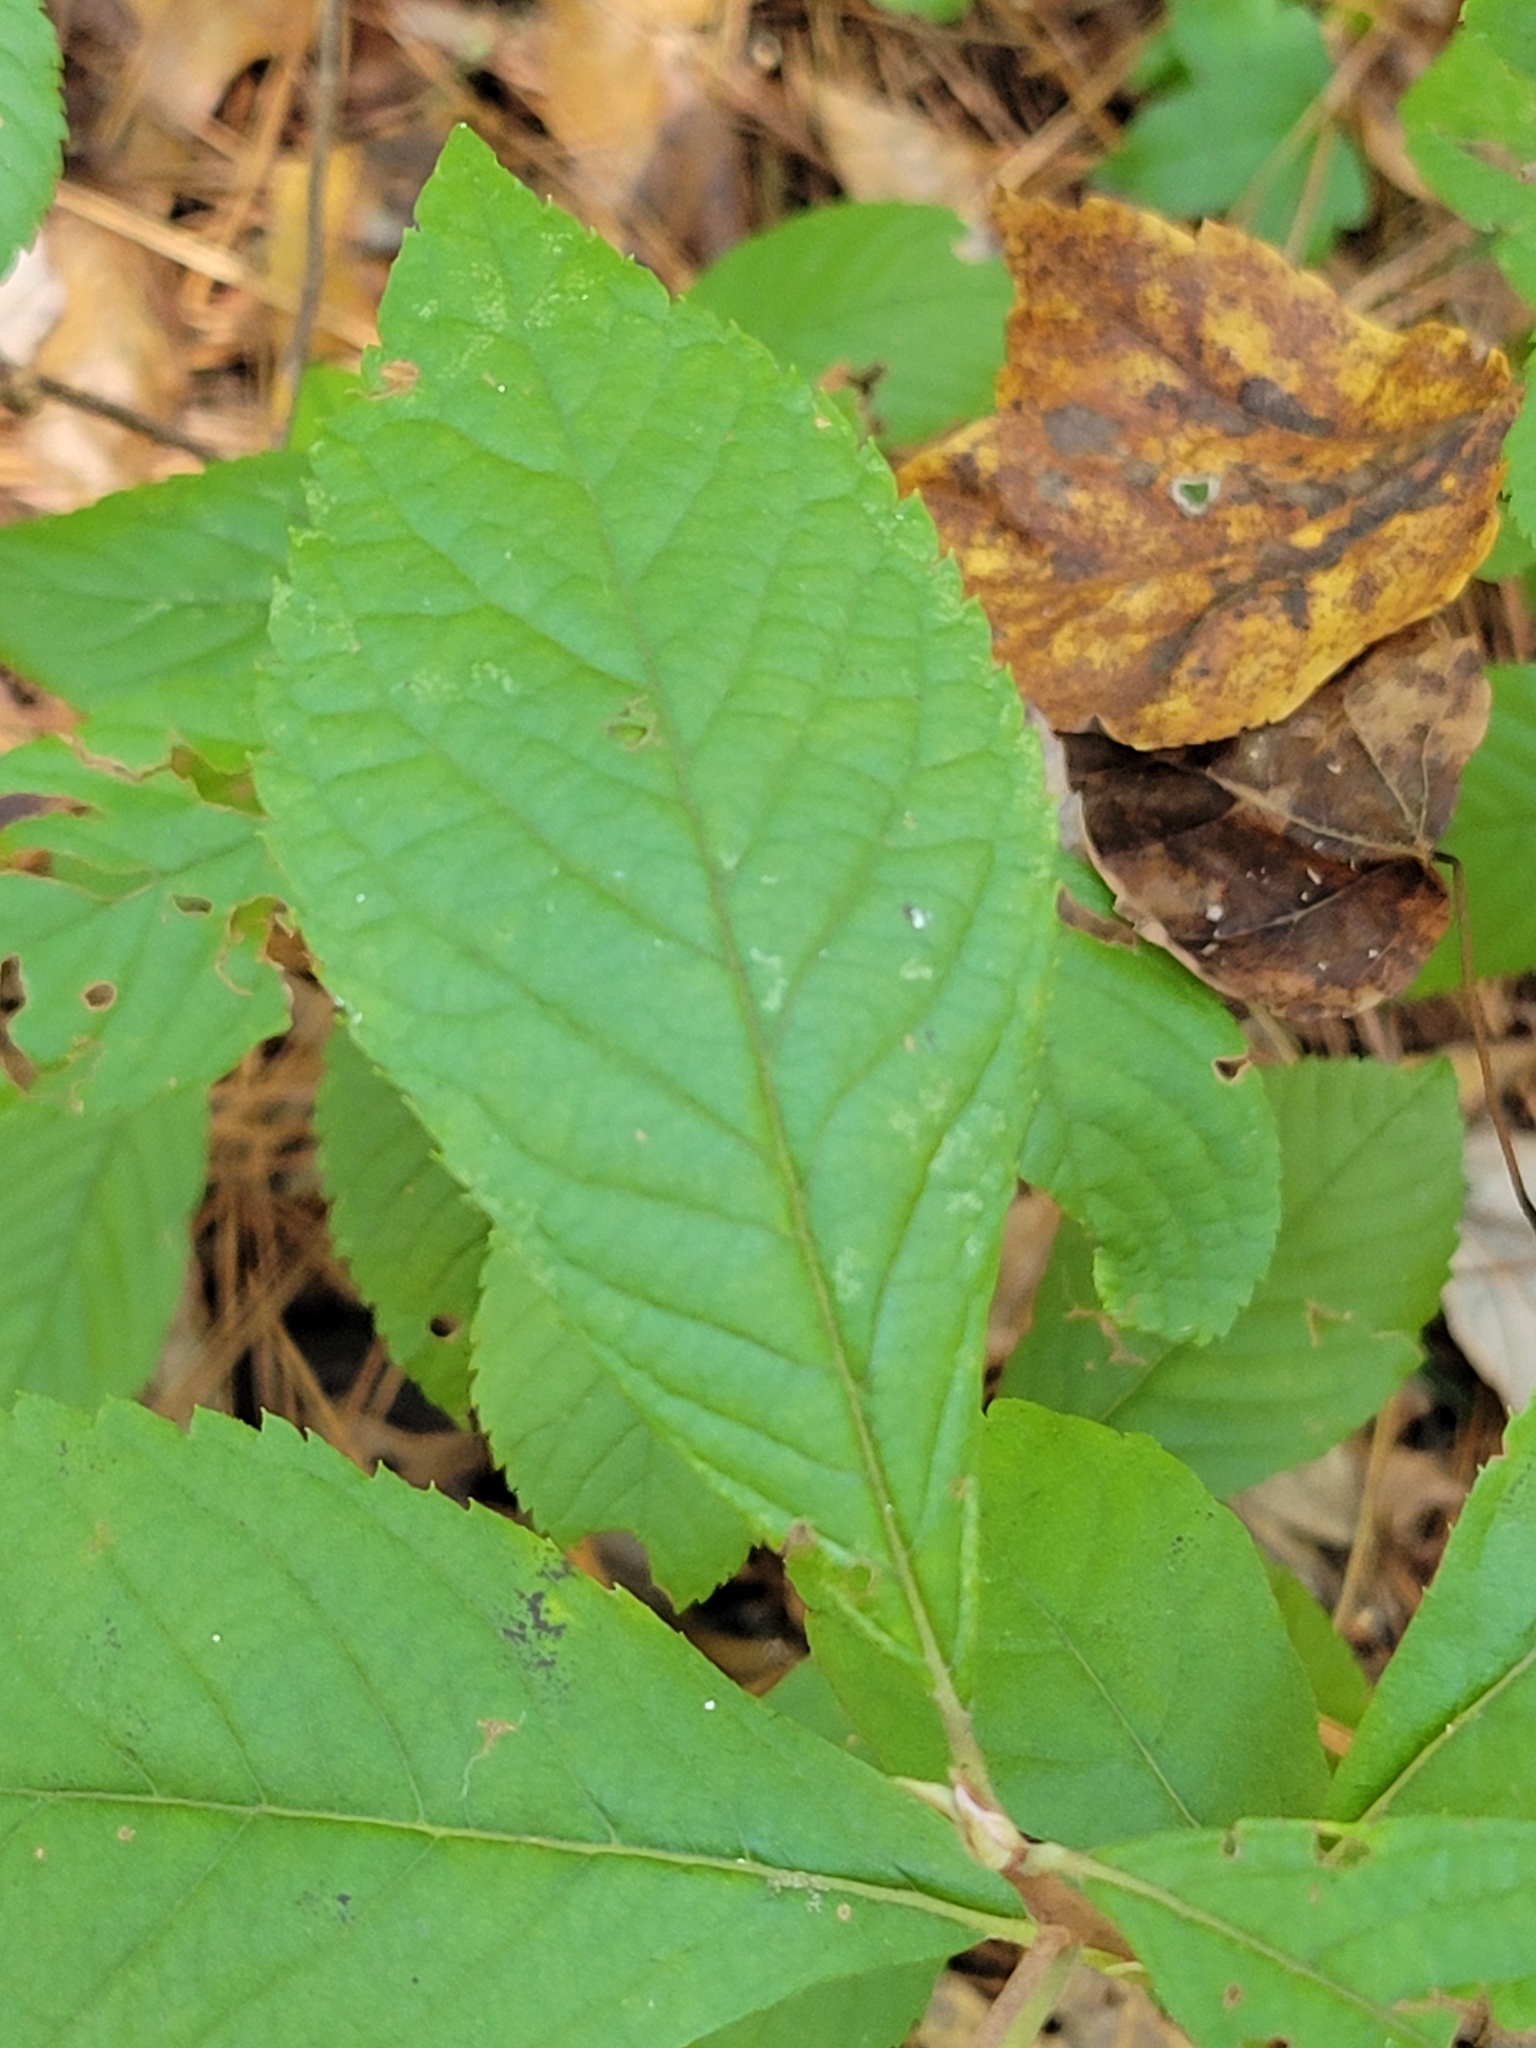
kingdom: Plantae
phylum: Tracheophyta
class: Magnoliopsida
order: Ericales
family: Clethraceae
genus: Clethra
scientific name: Clethra alnifolia
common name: Sweet pepperbush
